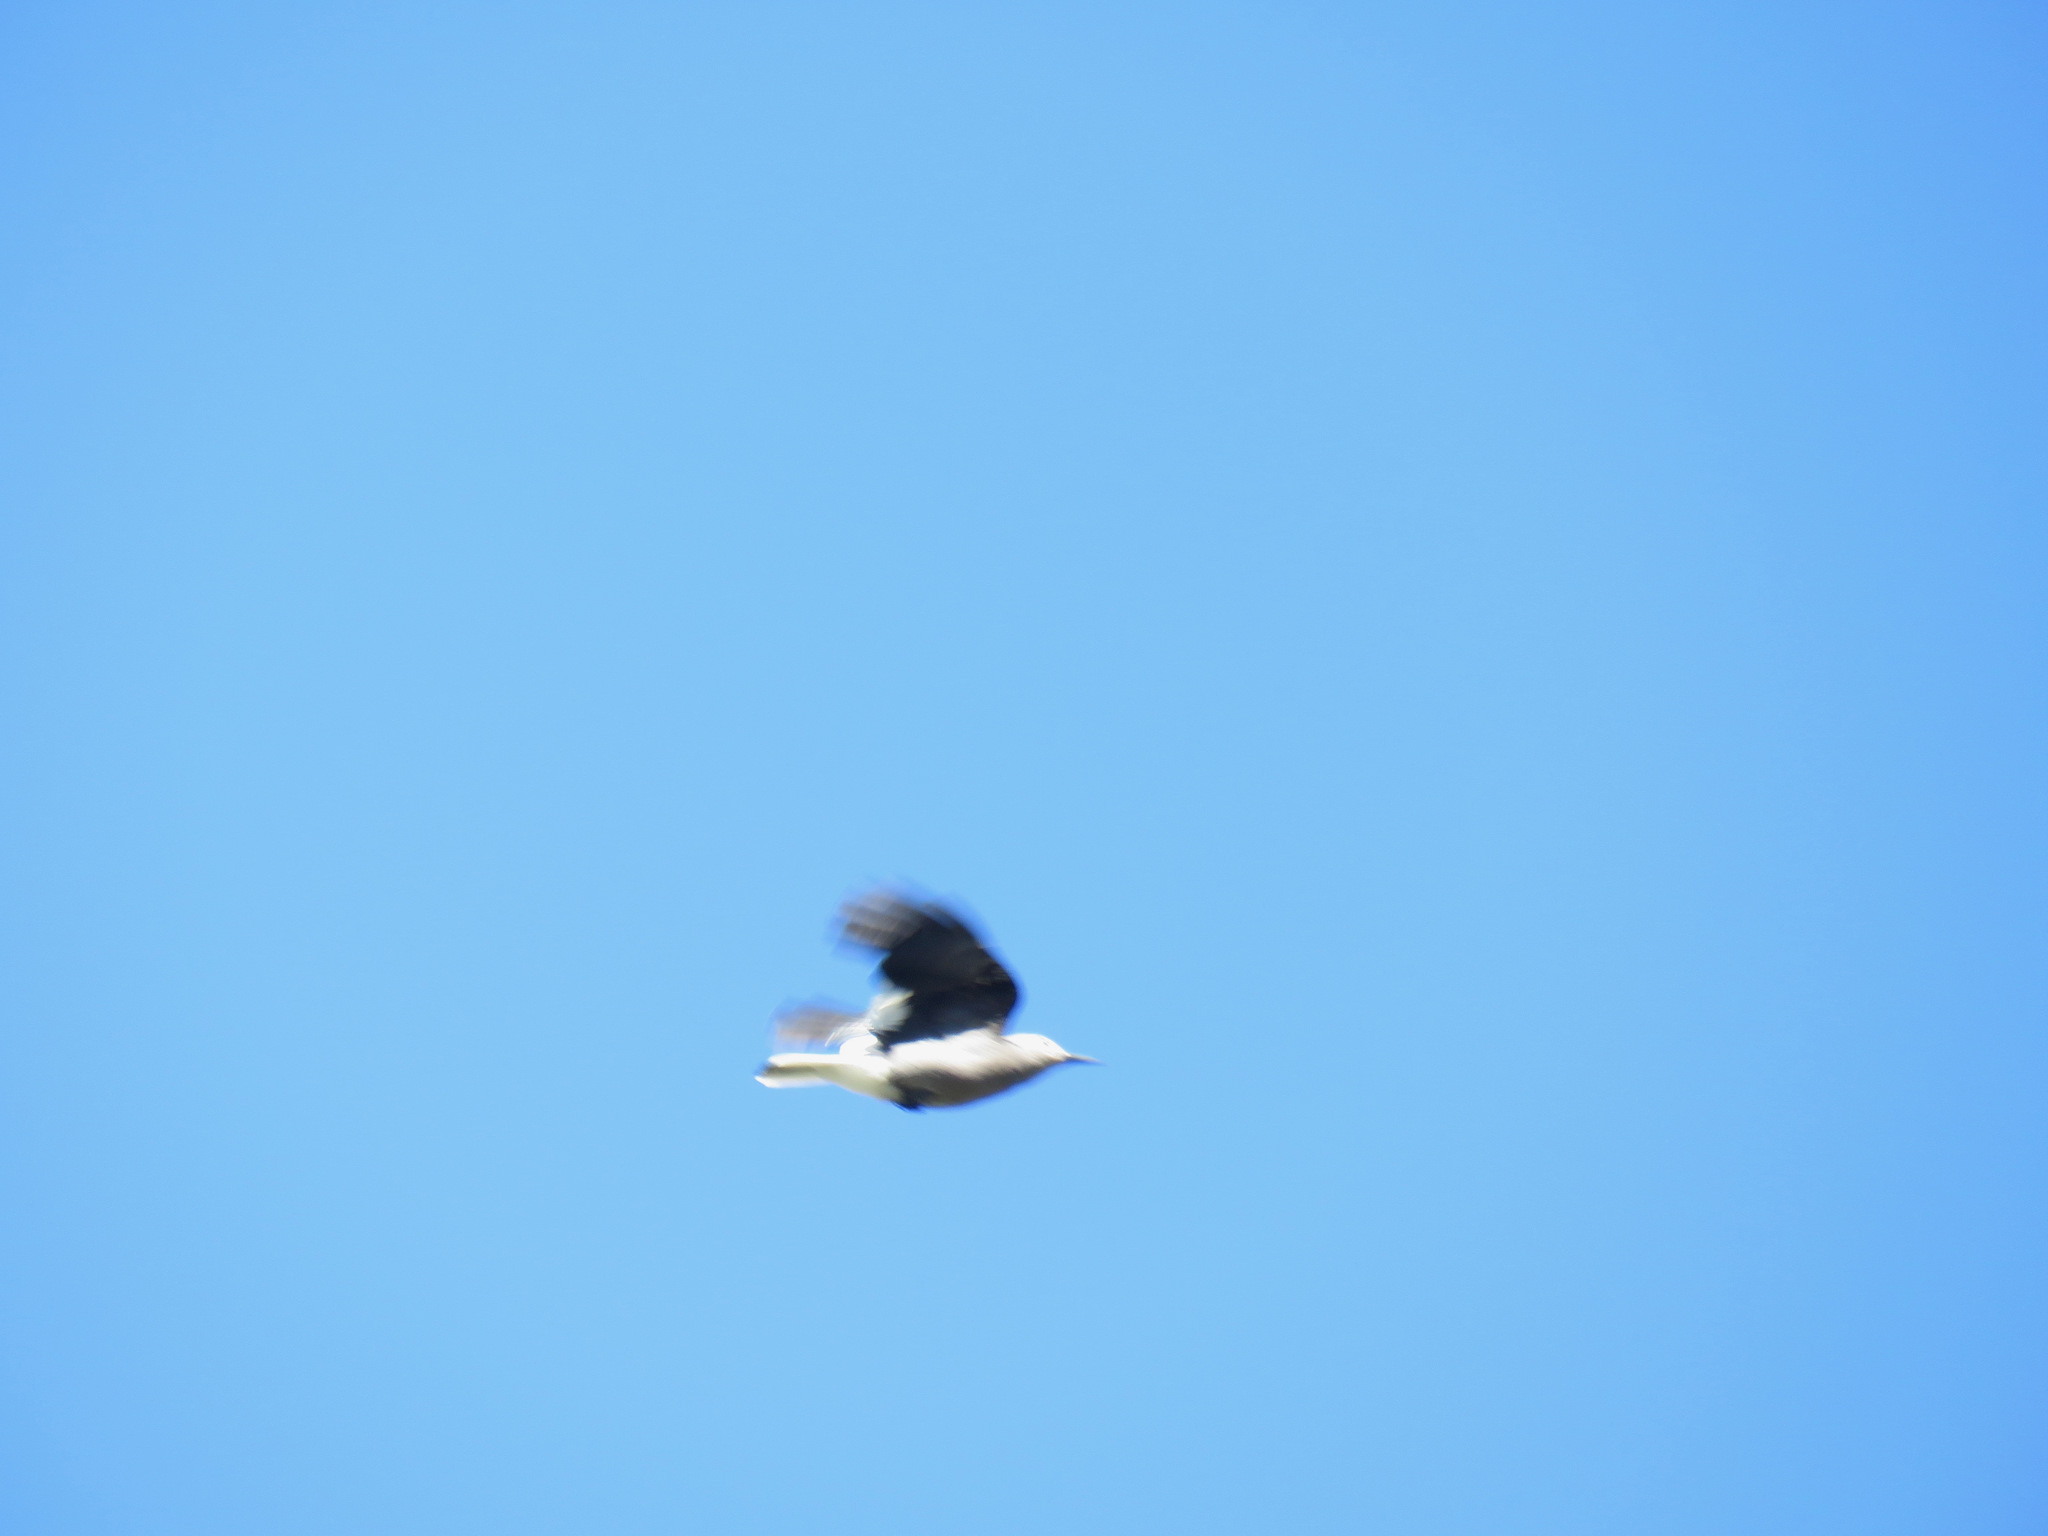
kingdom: Animalia
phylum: Chordata
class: Aves
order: Passeriformes
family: Corvidae
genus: Nucifraga
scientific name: Nucifraga columbiana
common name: Clark's nutcracker
